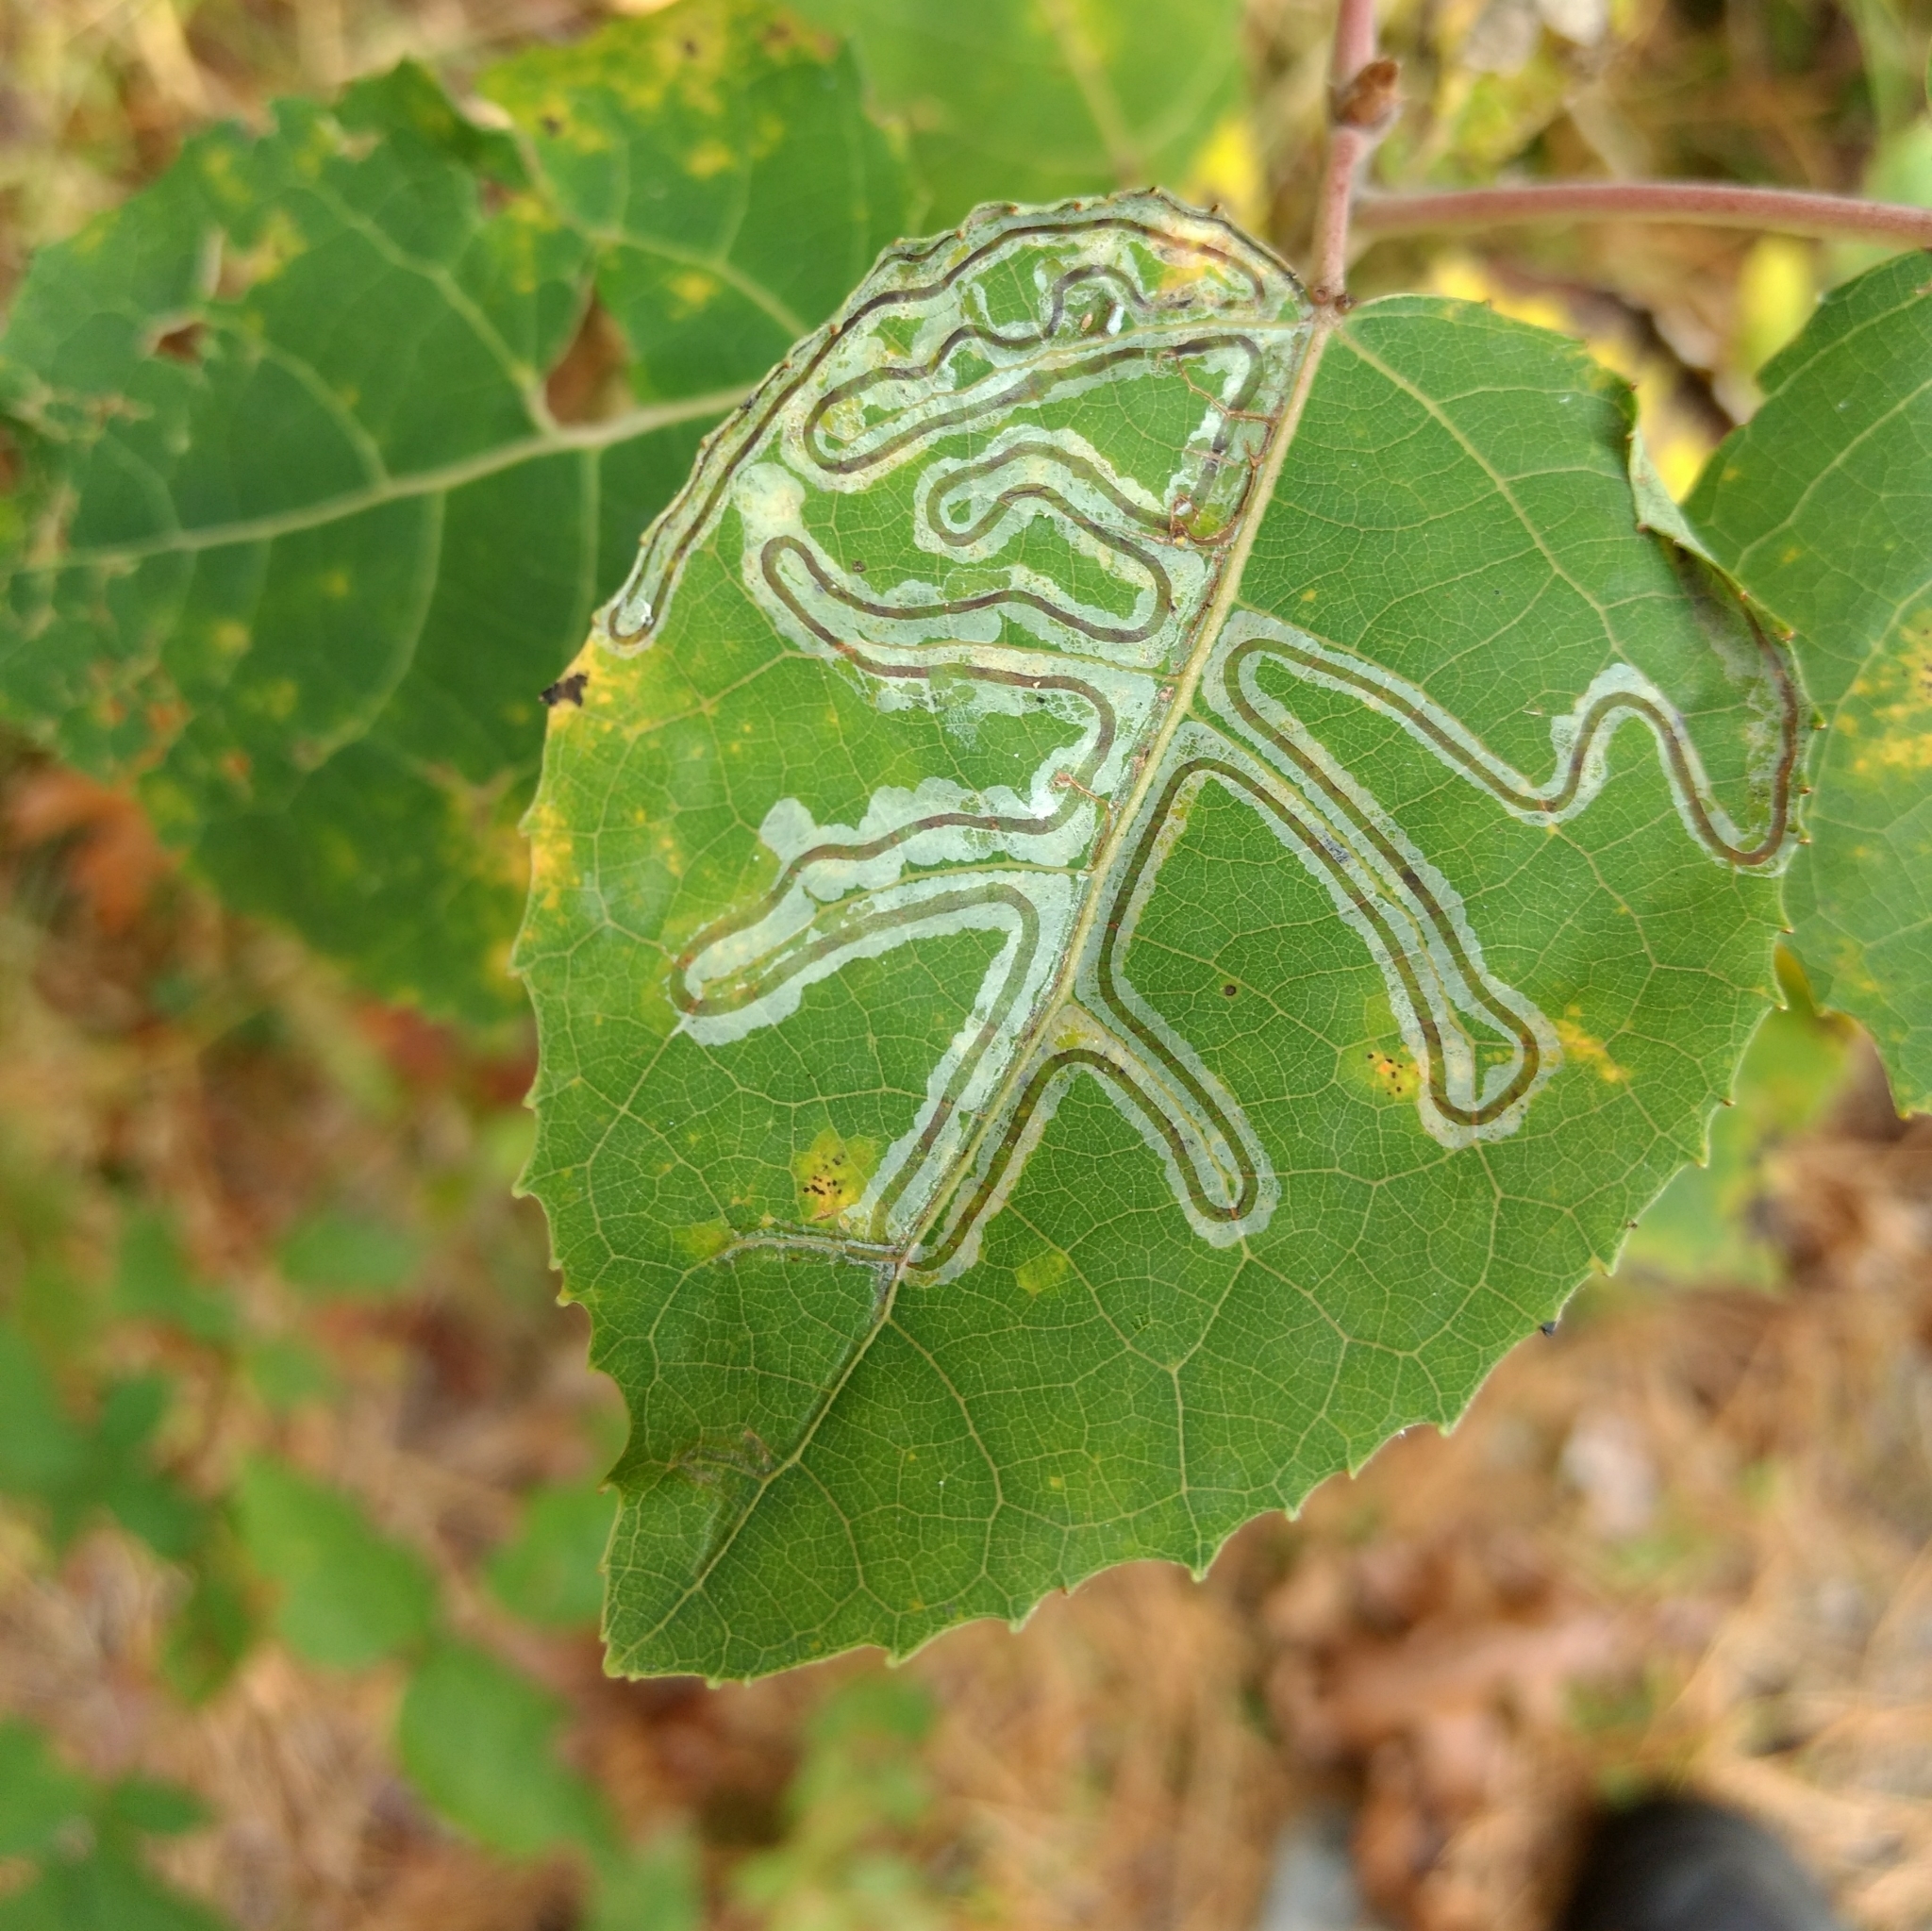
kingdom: Animalia
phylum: Arthropoda
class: Insecta
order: Lepidoptera
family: Gracillariidae
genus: Phyllocnistis
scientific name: Phyllocnistis populiella
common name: Aspen serpentine leafminer moth
